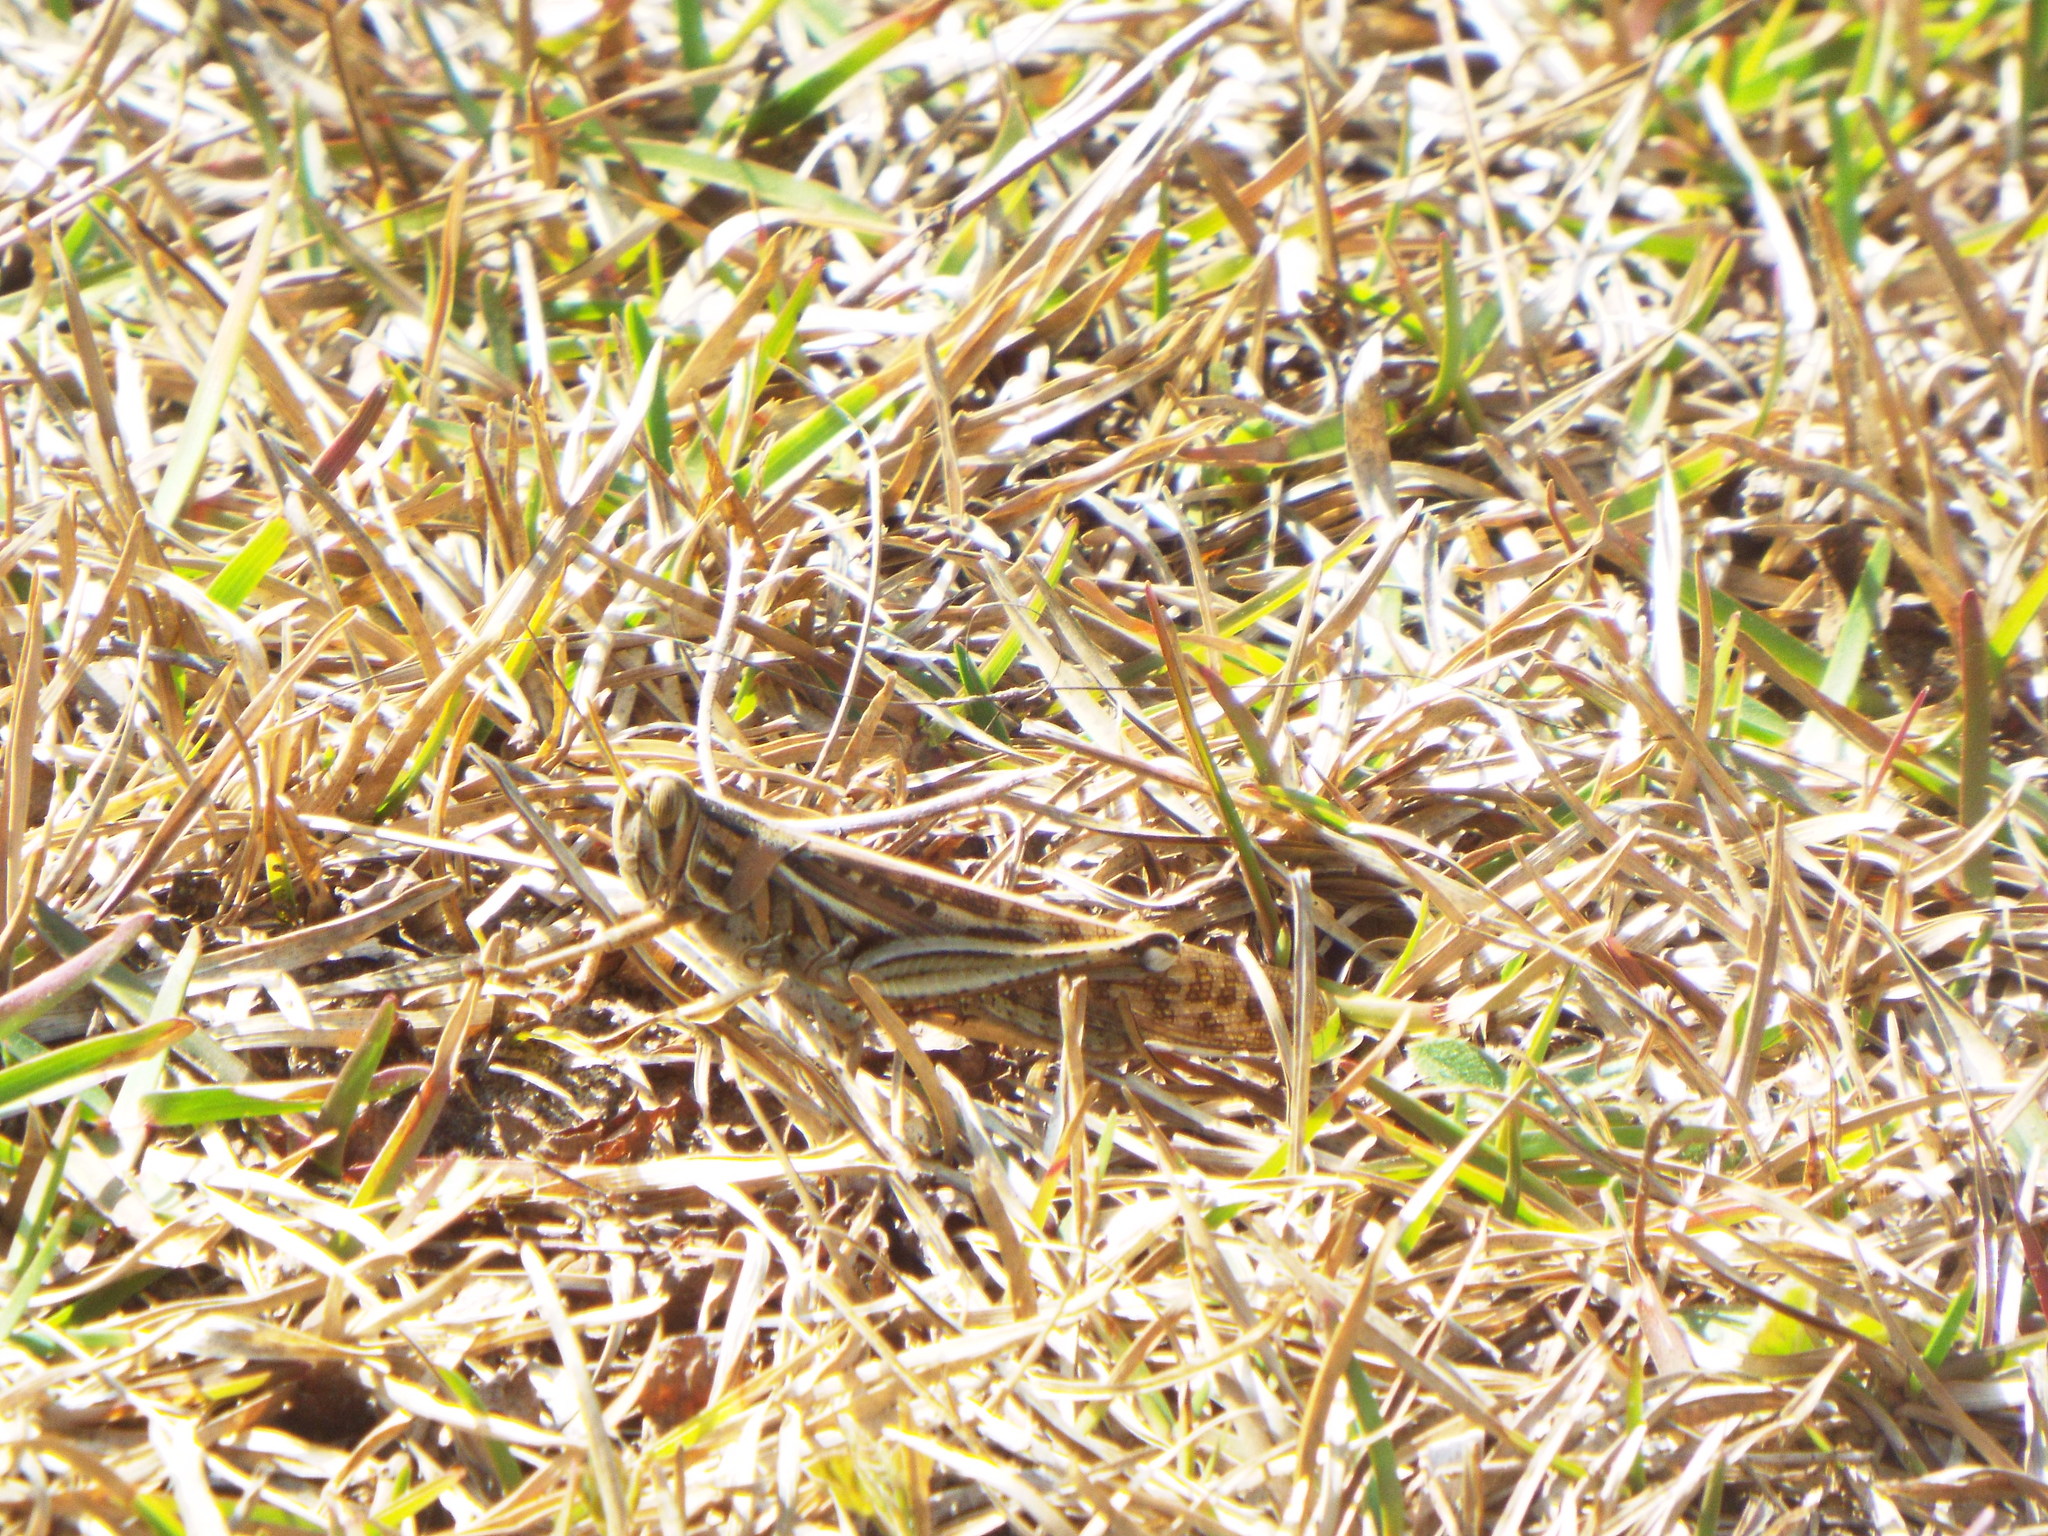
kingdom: Animalia
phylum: Arthropoda
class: Insecta
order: Orthoptera
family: Acrididae
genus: Schistocerca
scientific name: Schistocerca americana
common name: American bird locust
